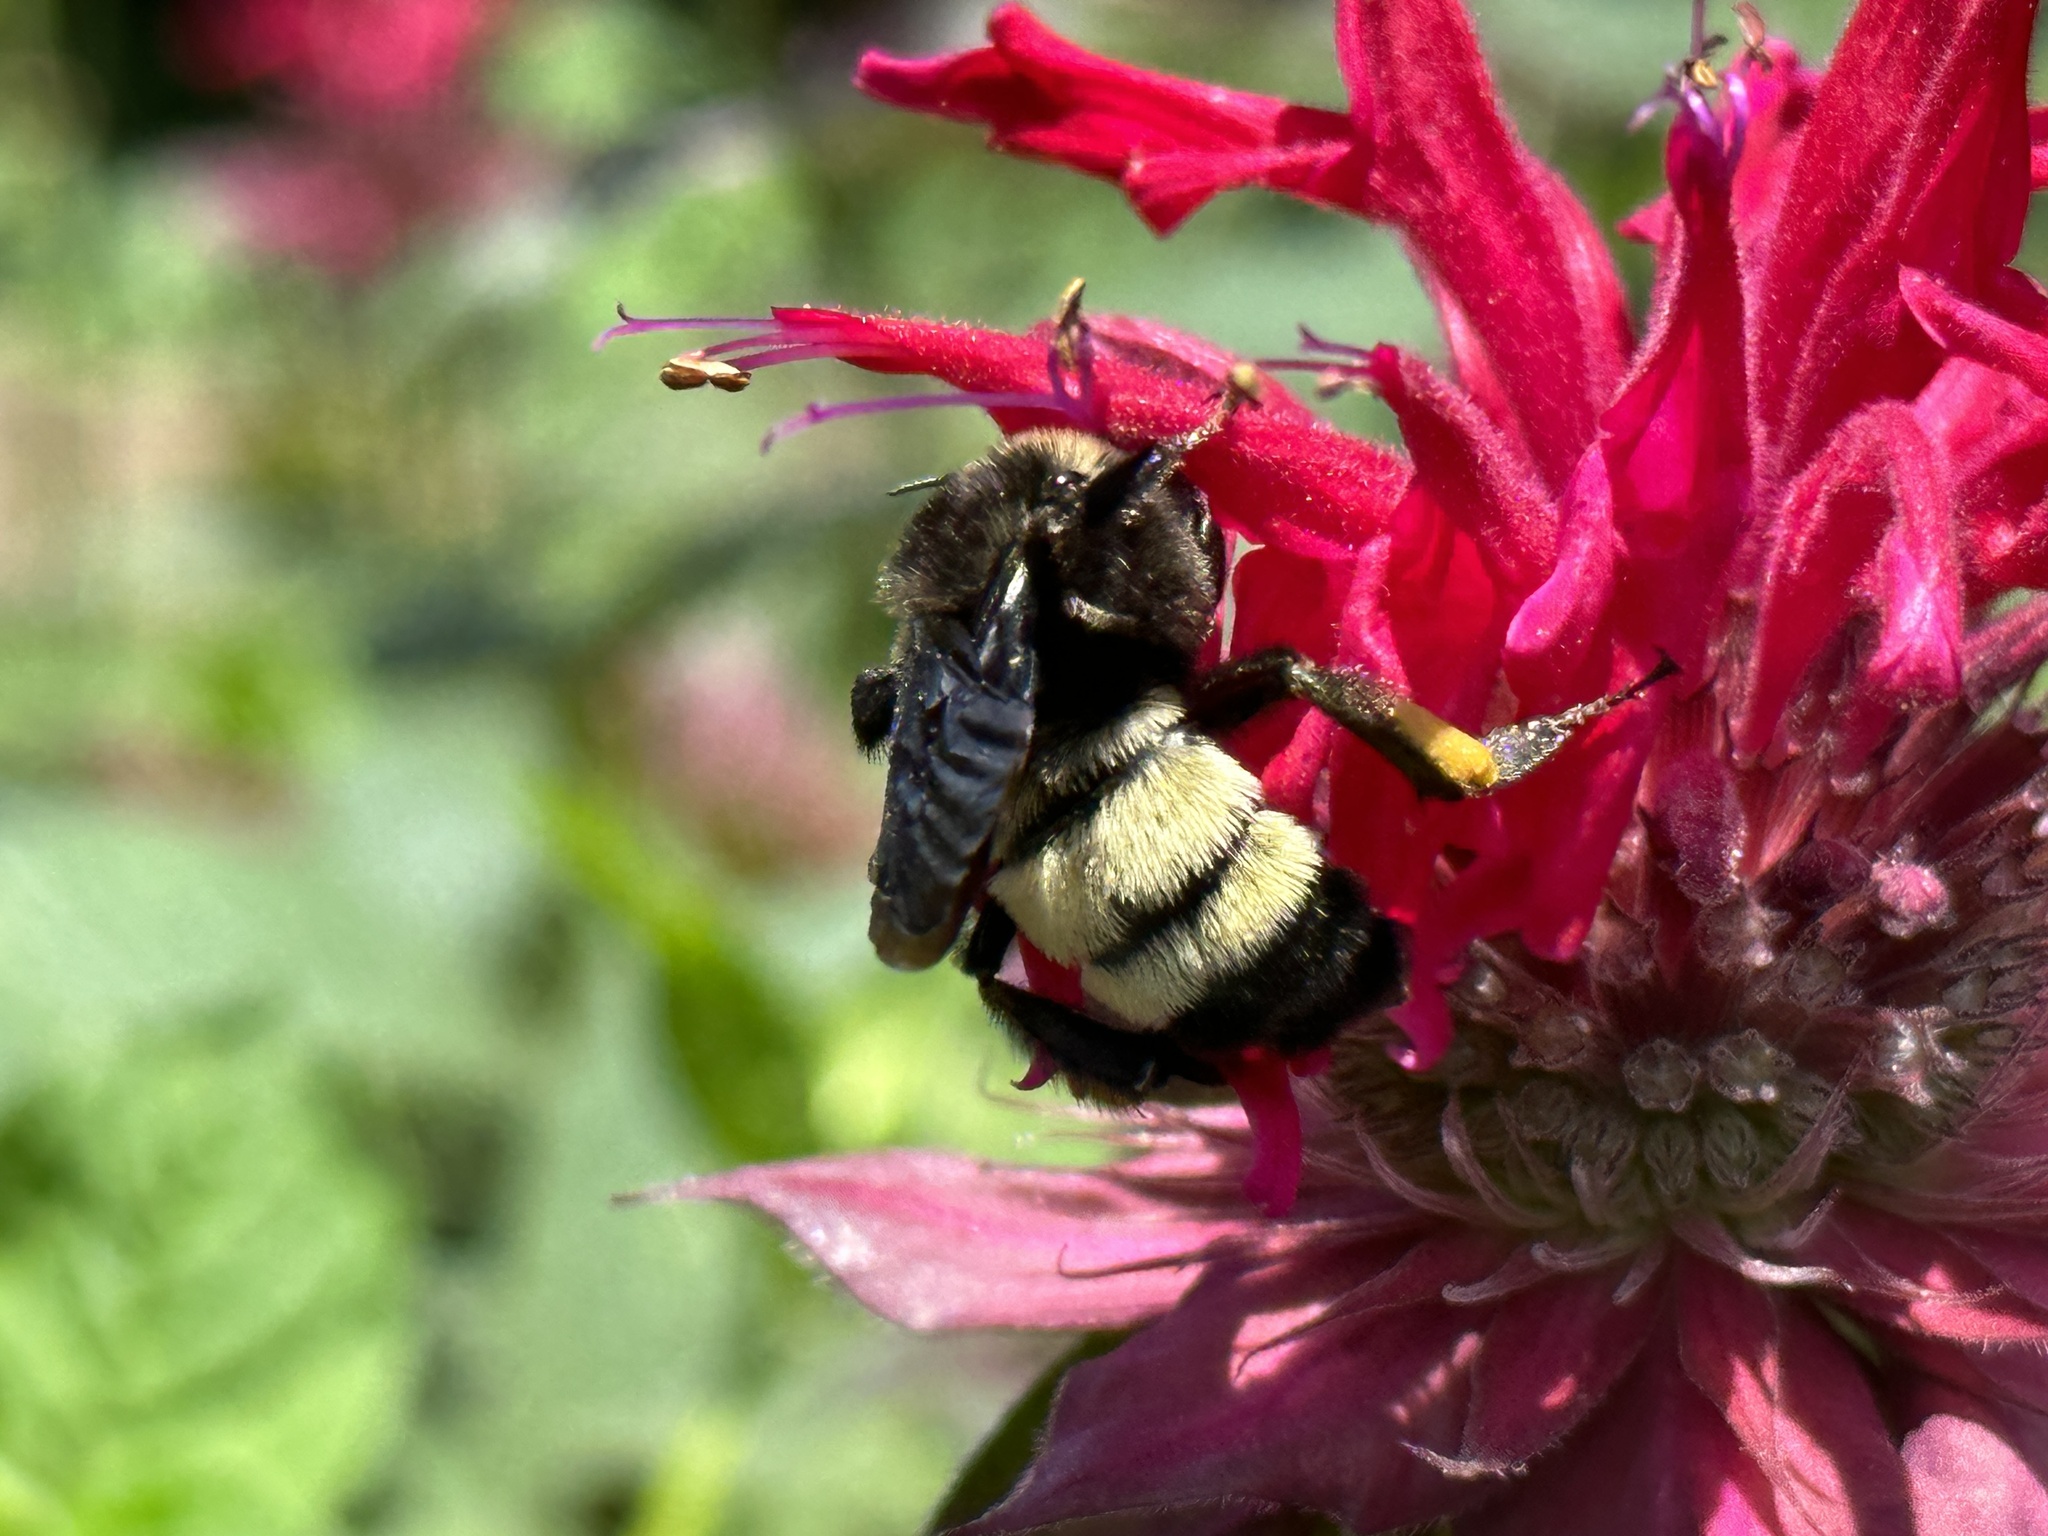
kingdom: Animalia
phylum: Arthropoda
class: Insecta
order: Hymenoptera
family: Apidae
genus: Bombus
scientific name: Bombus pensylvanicus
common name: Bumble bee
